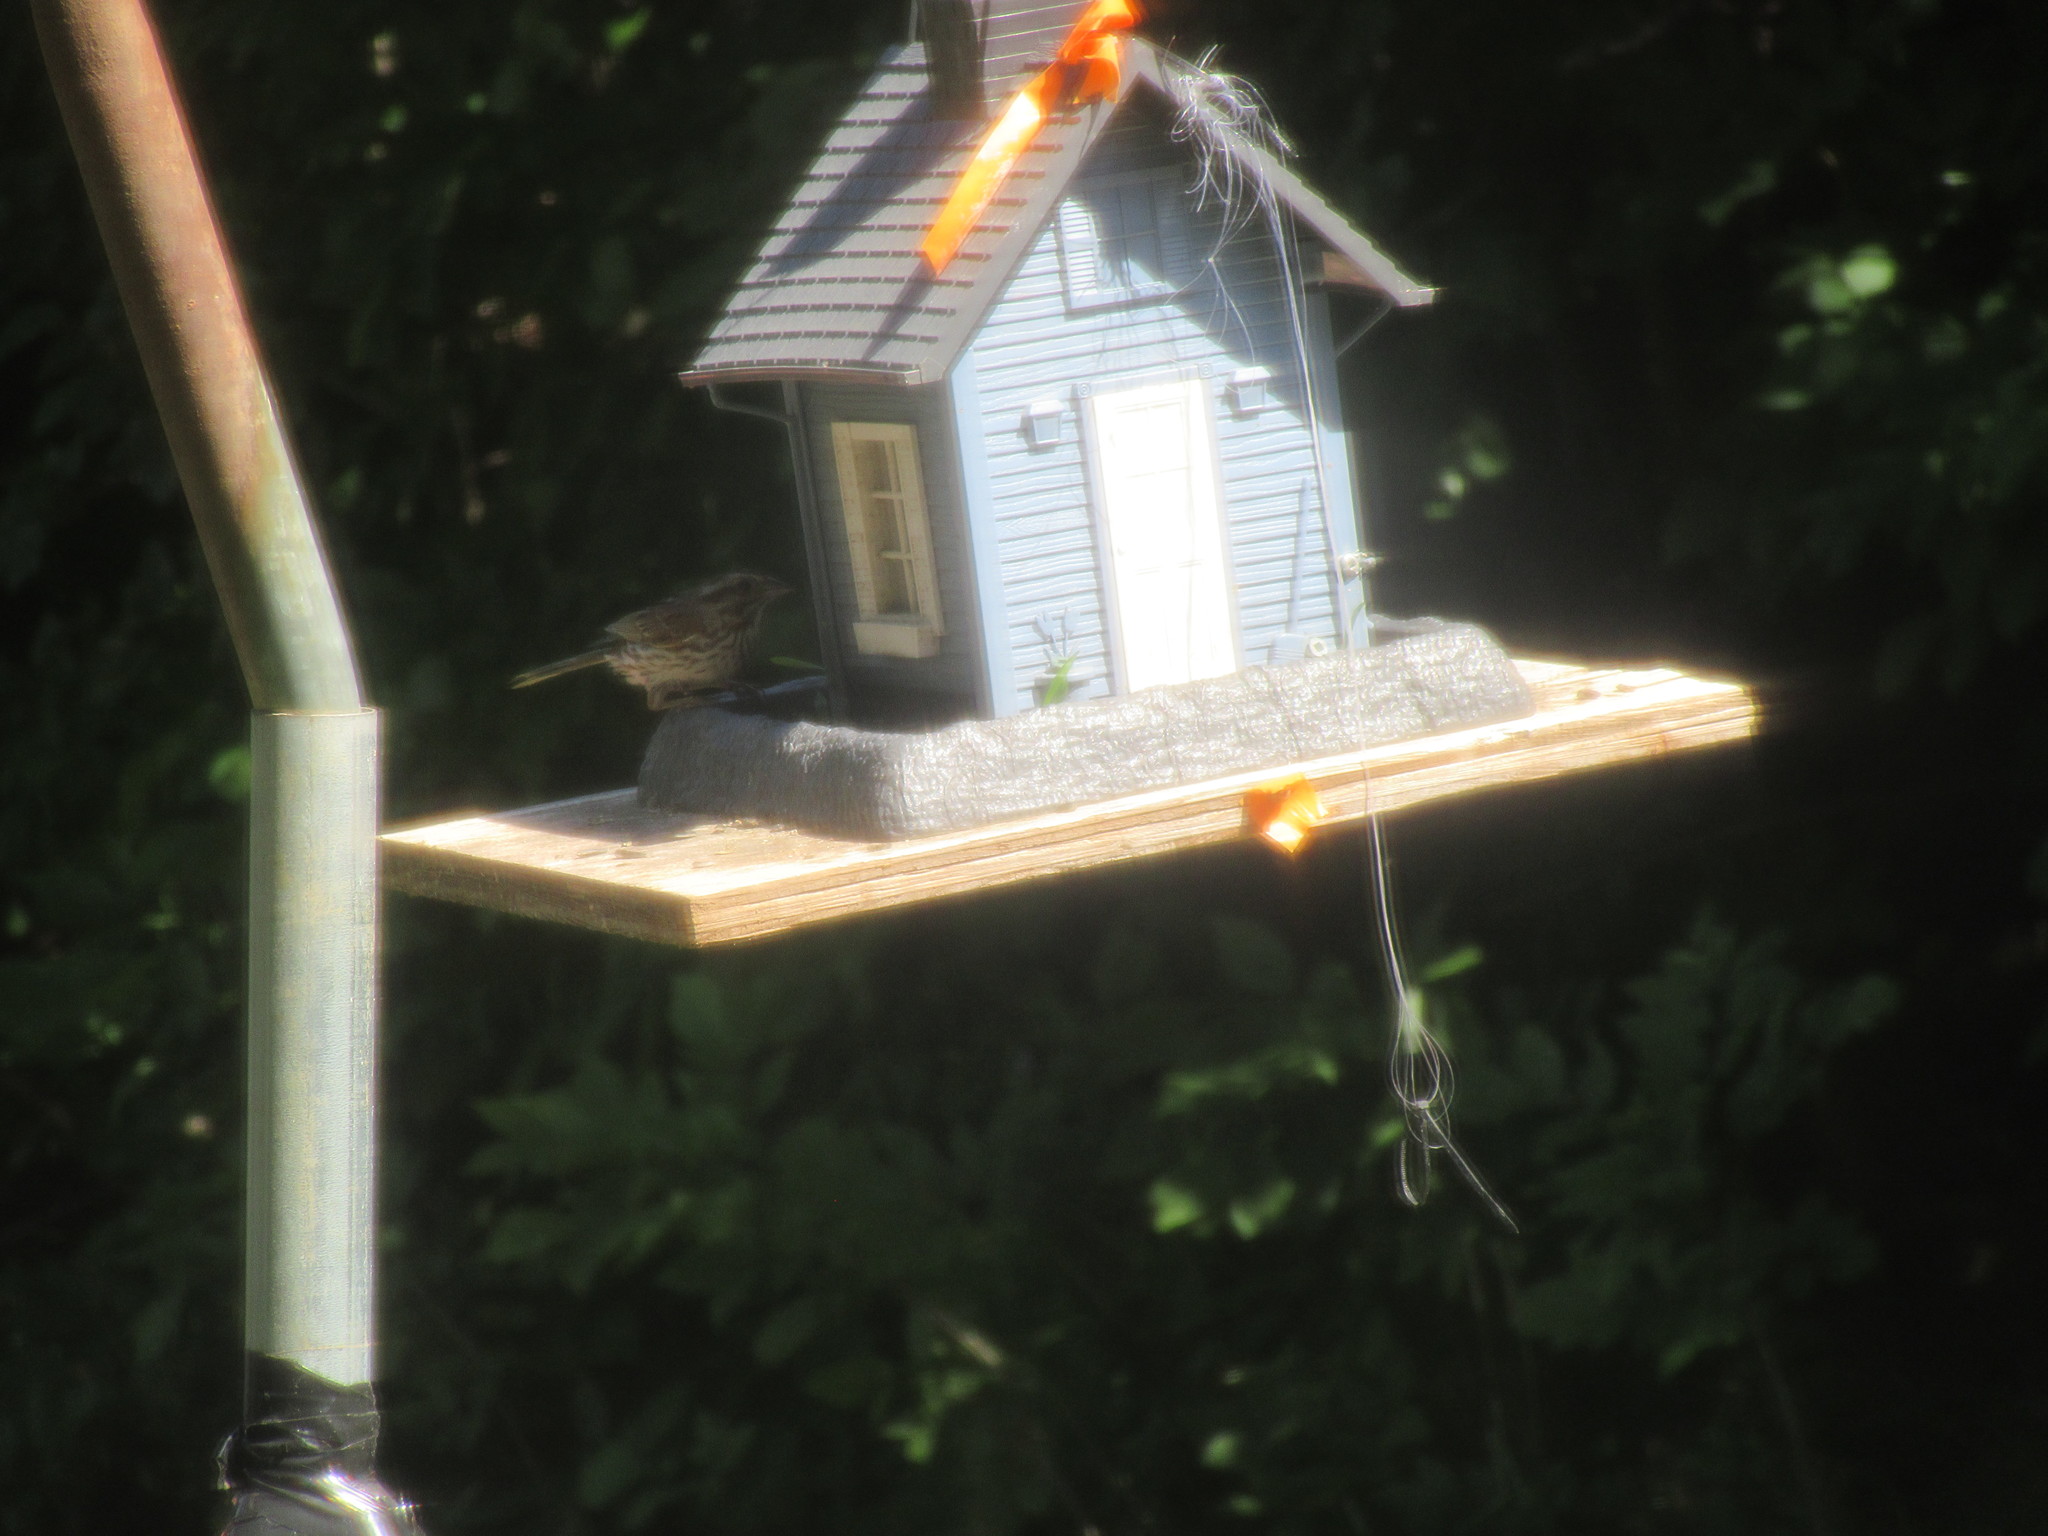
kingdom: Animalia
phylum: Chordata
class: Aves
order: Passeriformes
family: Passerellidae
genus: Melospiza
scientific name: Melospiza melodia
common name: Song sparrow
